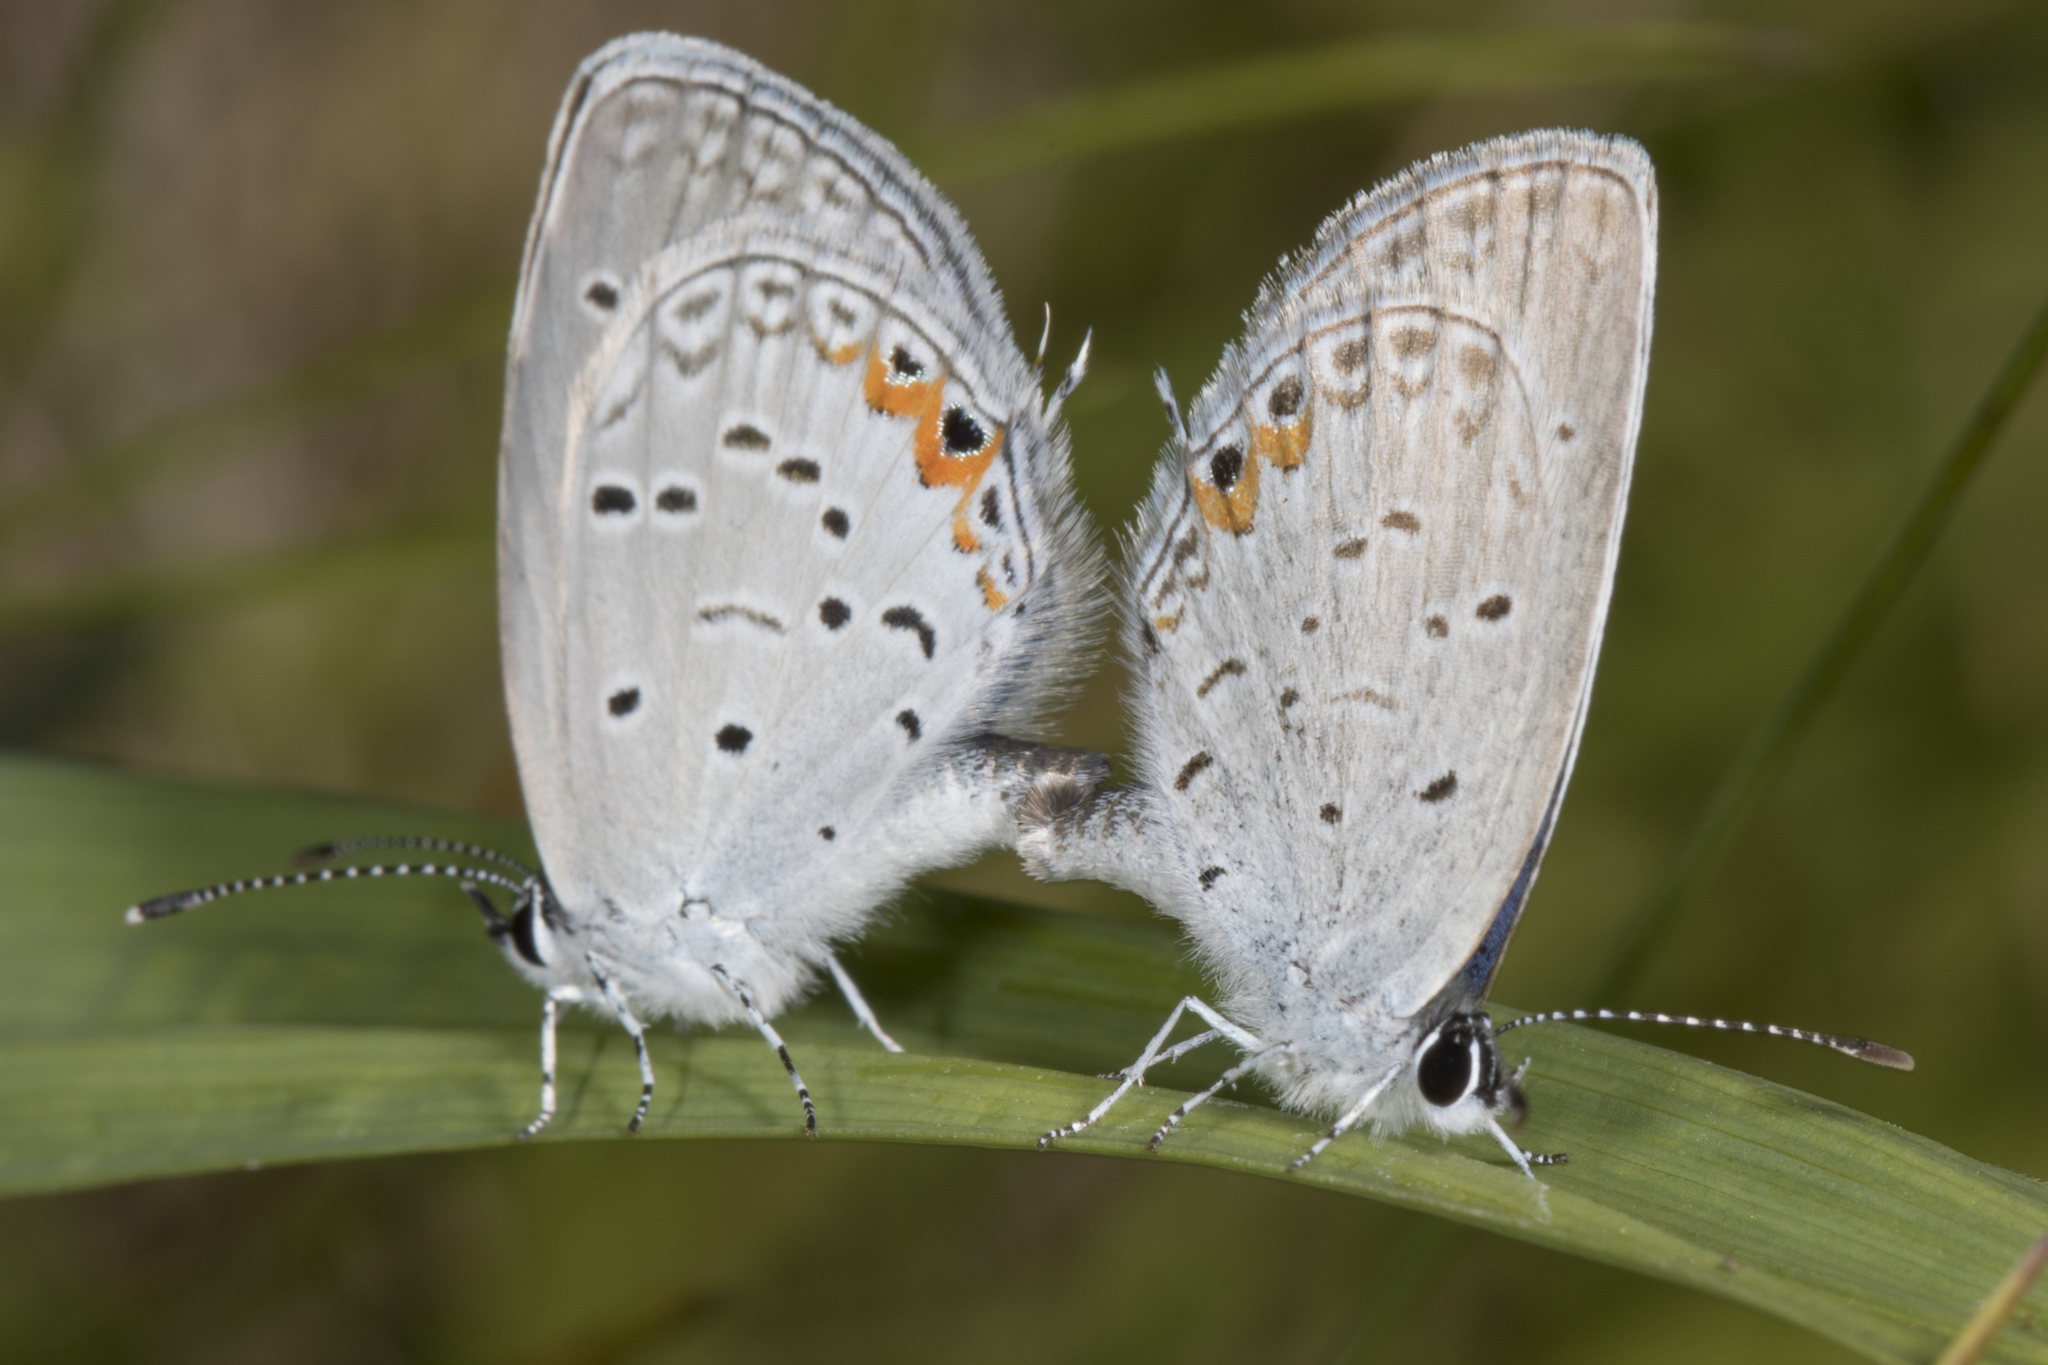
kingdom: Animalia
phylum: Arthropoda
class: Insecta
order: Lepidoptera
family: Lycaenidae
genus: Elkalyce
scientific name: Elkalyce comyntas
